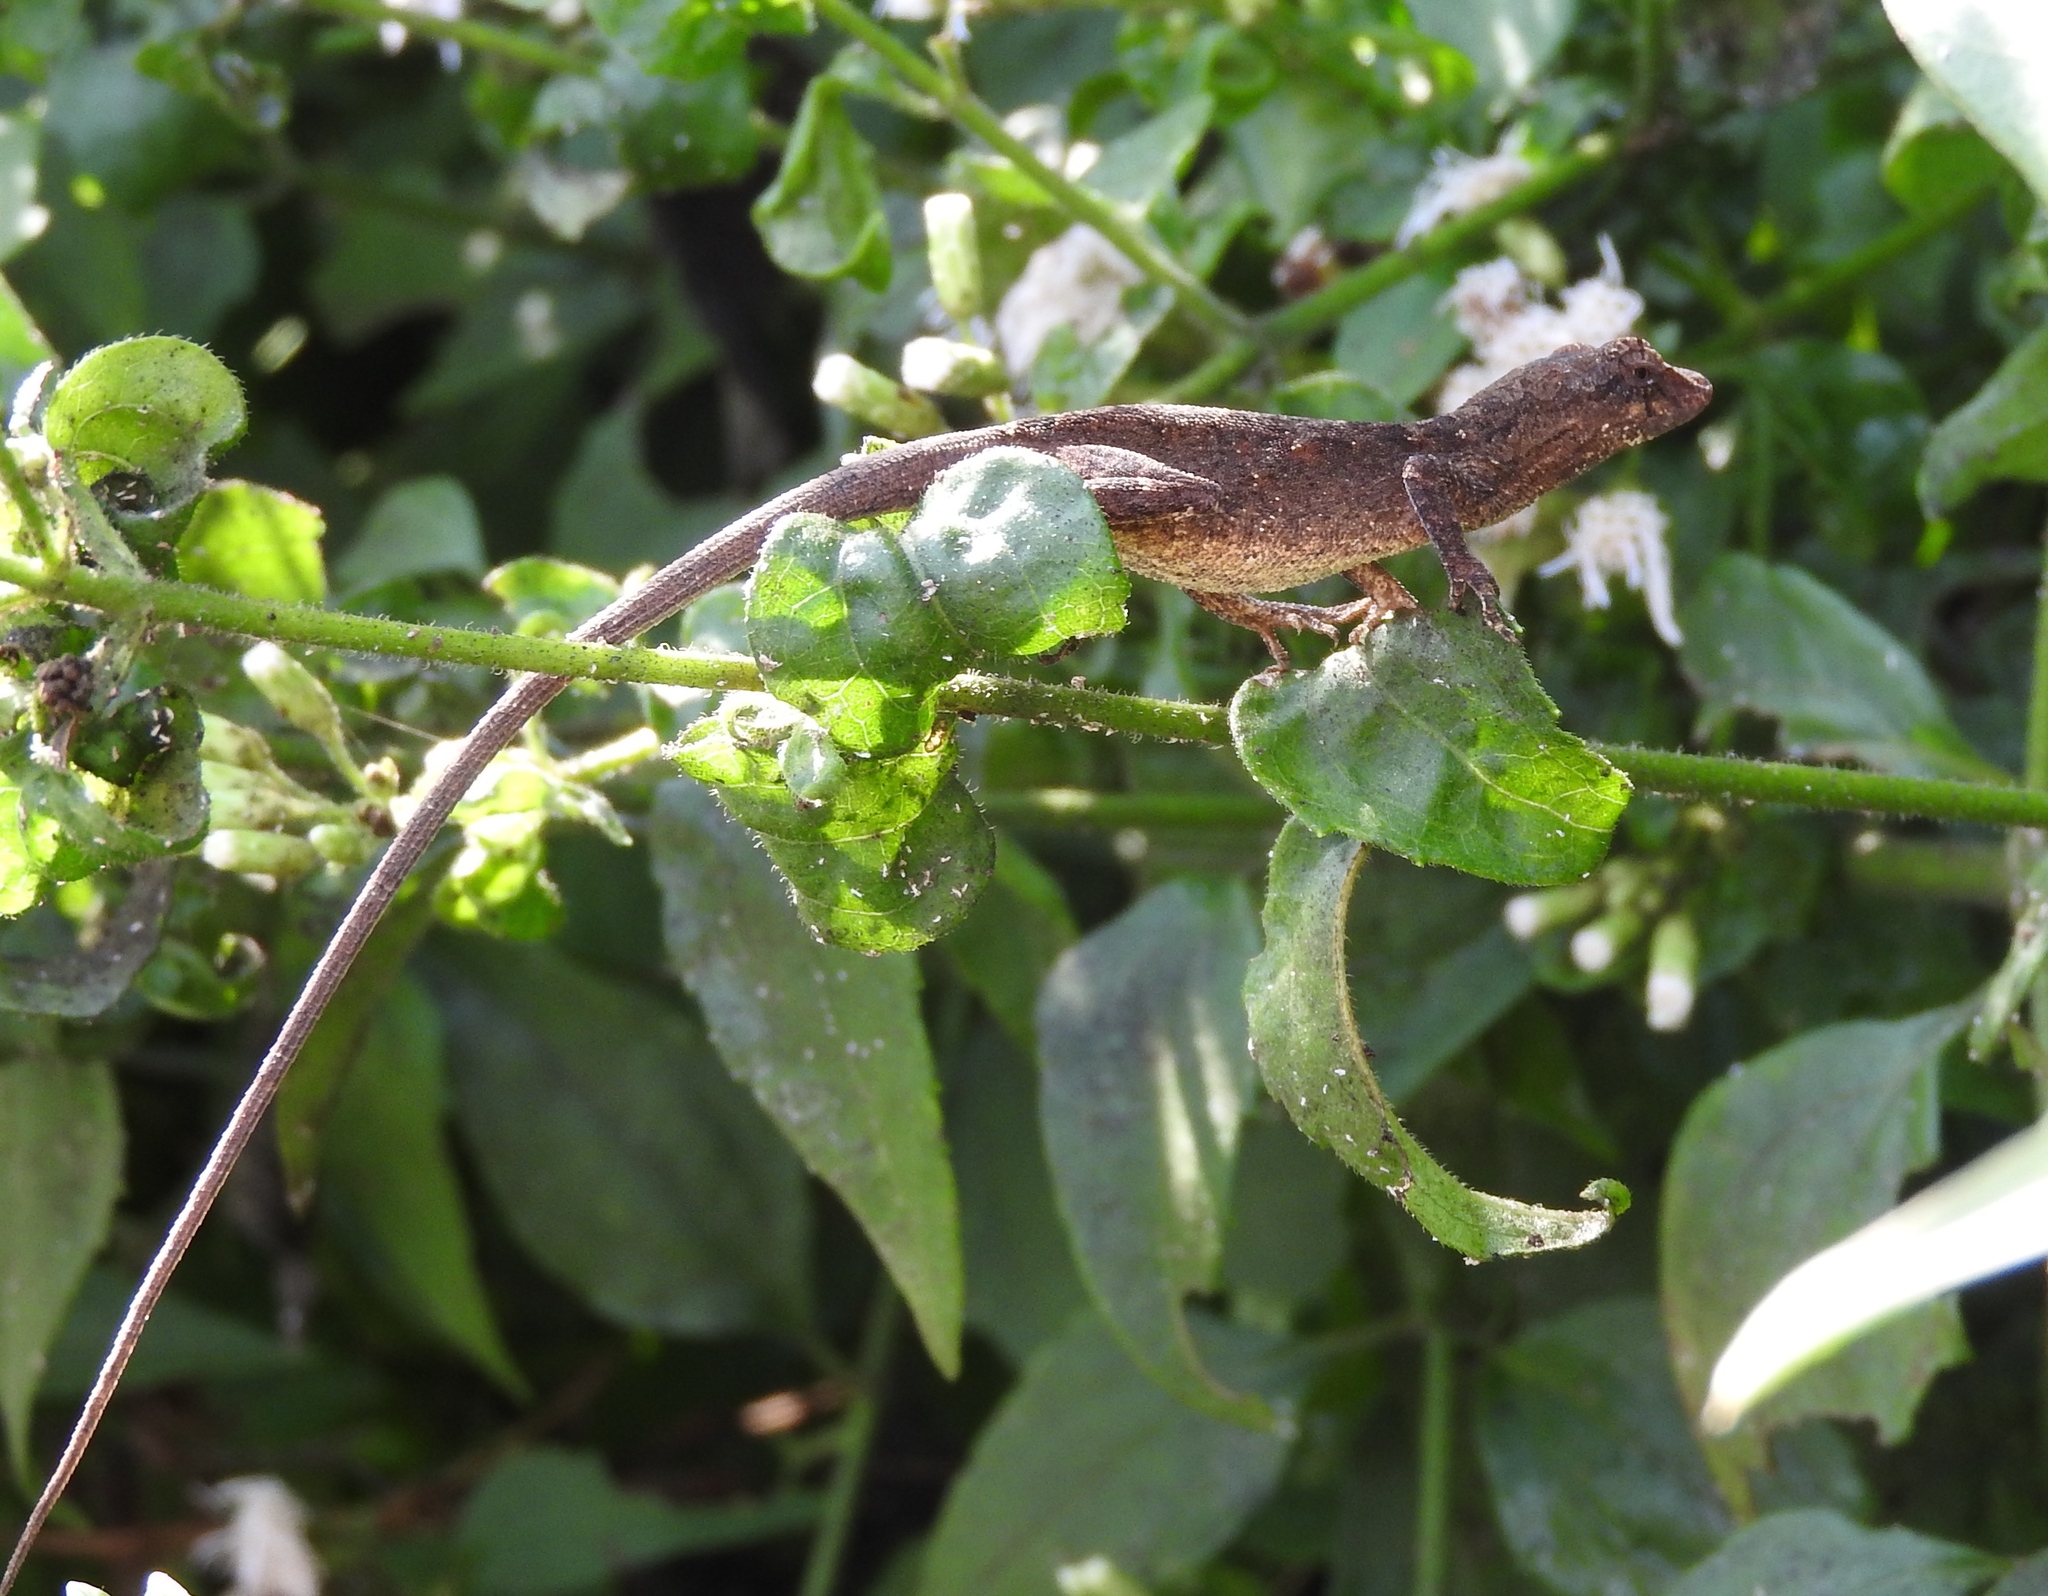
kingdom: Animalia
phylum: Chordata
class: Squamata
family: Dactyloidae
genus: Anolis
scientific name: Anolis nebulosus
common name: Clouded anole
